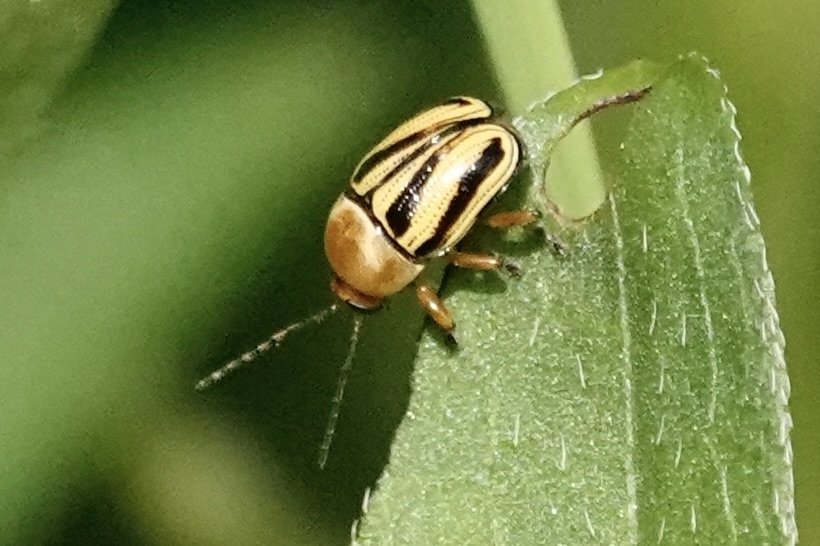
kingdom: Animalia
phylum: Arthropoda
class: Insecta
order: Coleoptera
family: Chrysomelidae
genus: Cryptocephalus
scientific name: Cryptocephalus venustus
